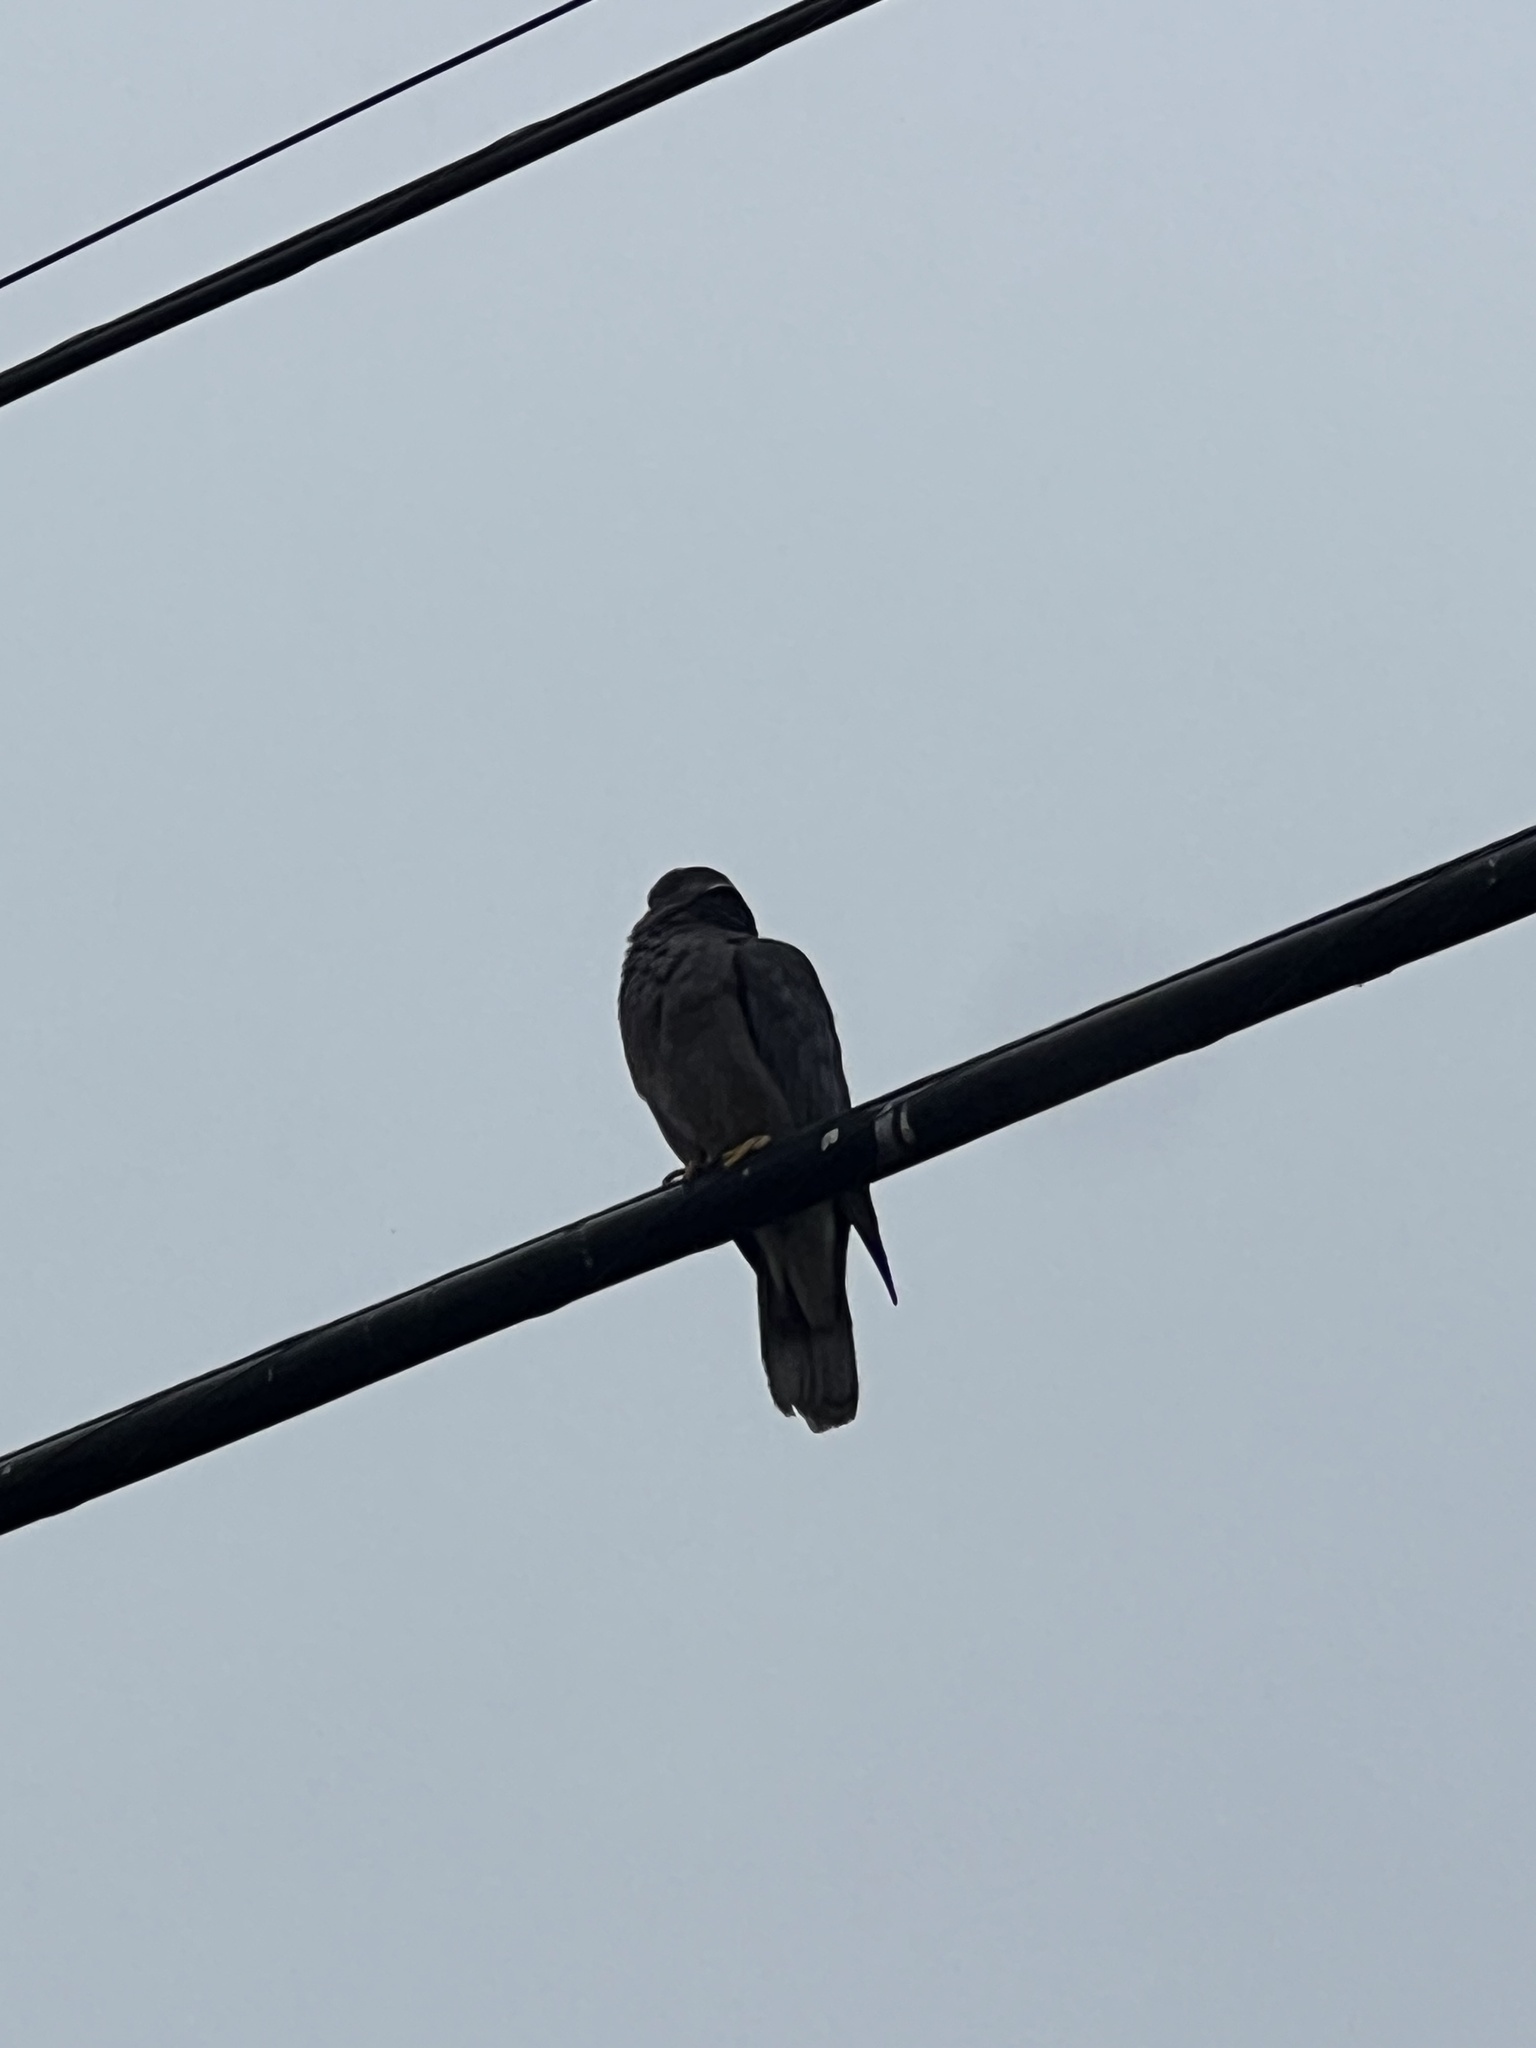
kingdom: Animalia
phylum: Chordata
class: Aves
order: Columbiformes
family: Columbidae
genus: Patagioenas
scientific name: Patagioenas fasciata
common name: Band-tailed pigeon
